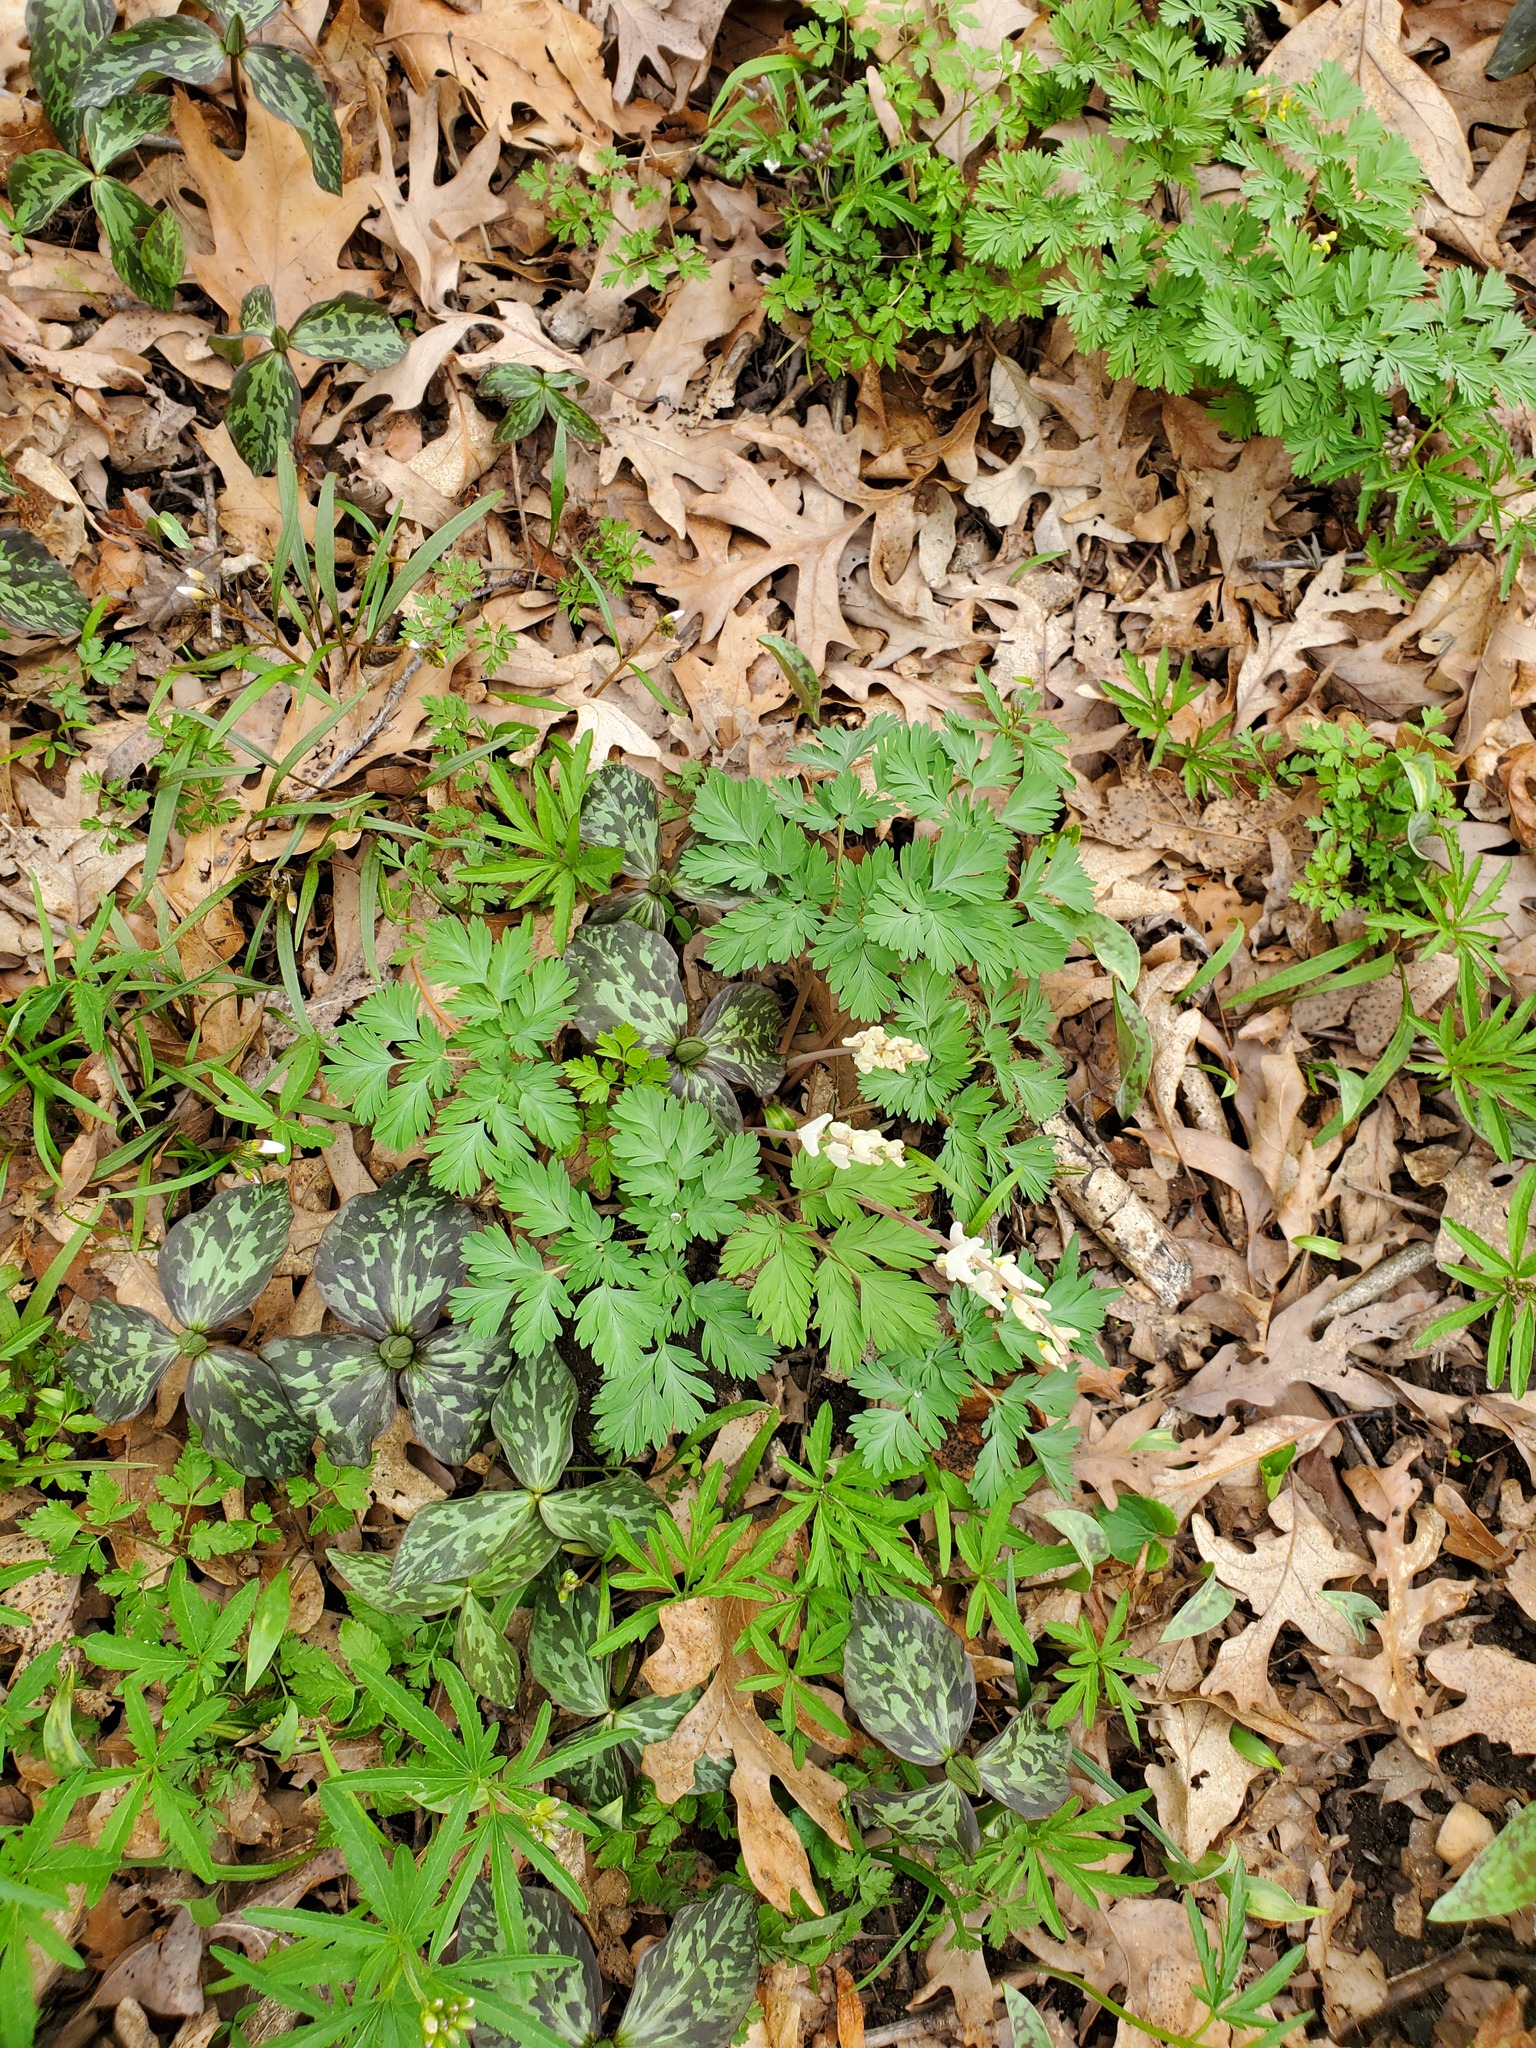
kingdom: Plantae
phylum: Tracheophyta
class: Magnoliopsida
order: Ranunculales
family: Papaveraceae
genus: Dicentra
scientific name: Dicentra cucullaria
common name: Dutchman's breeches
